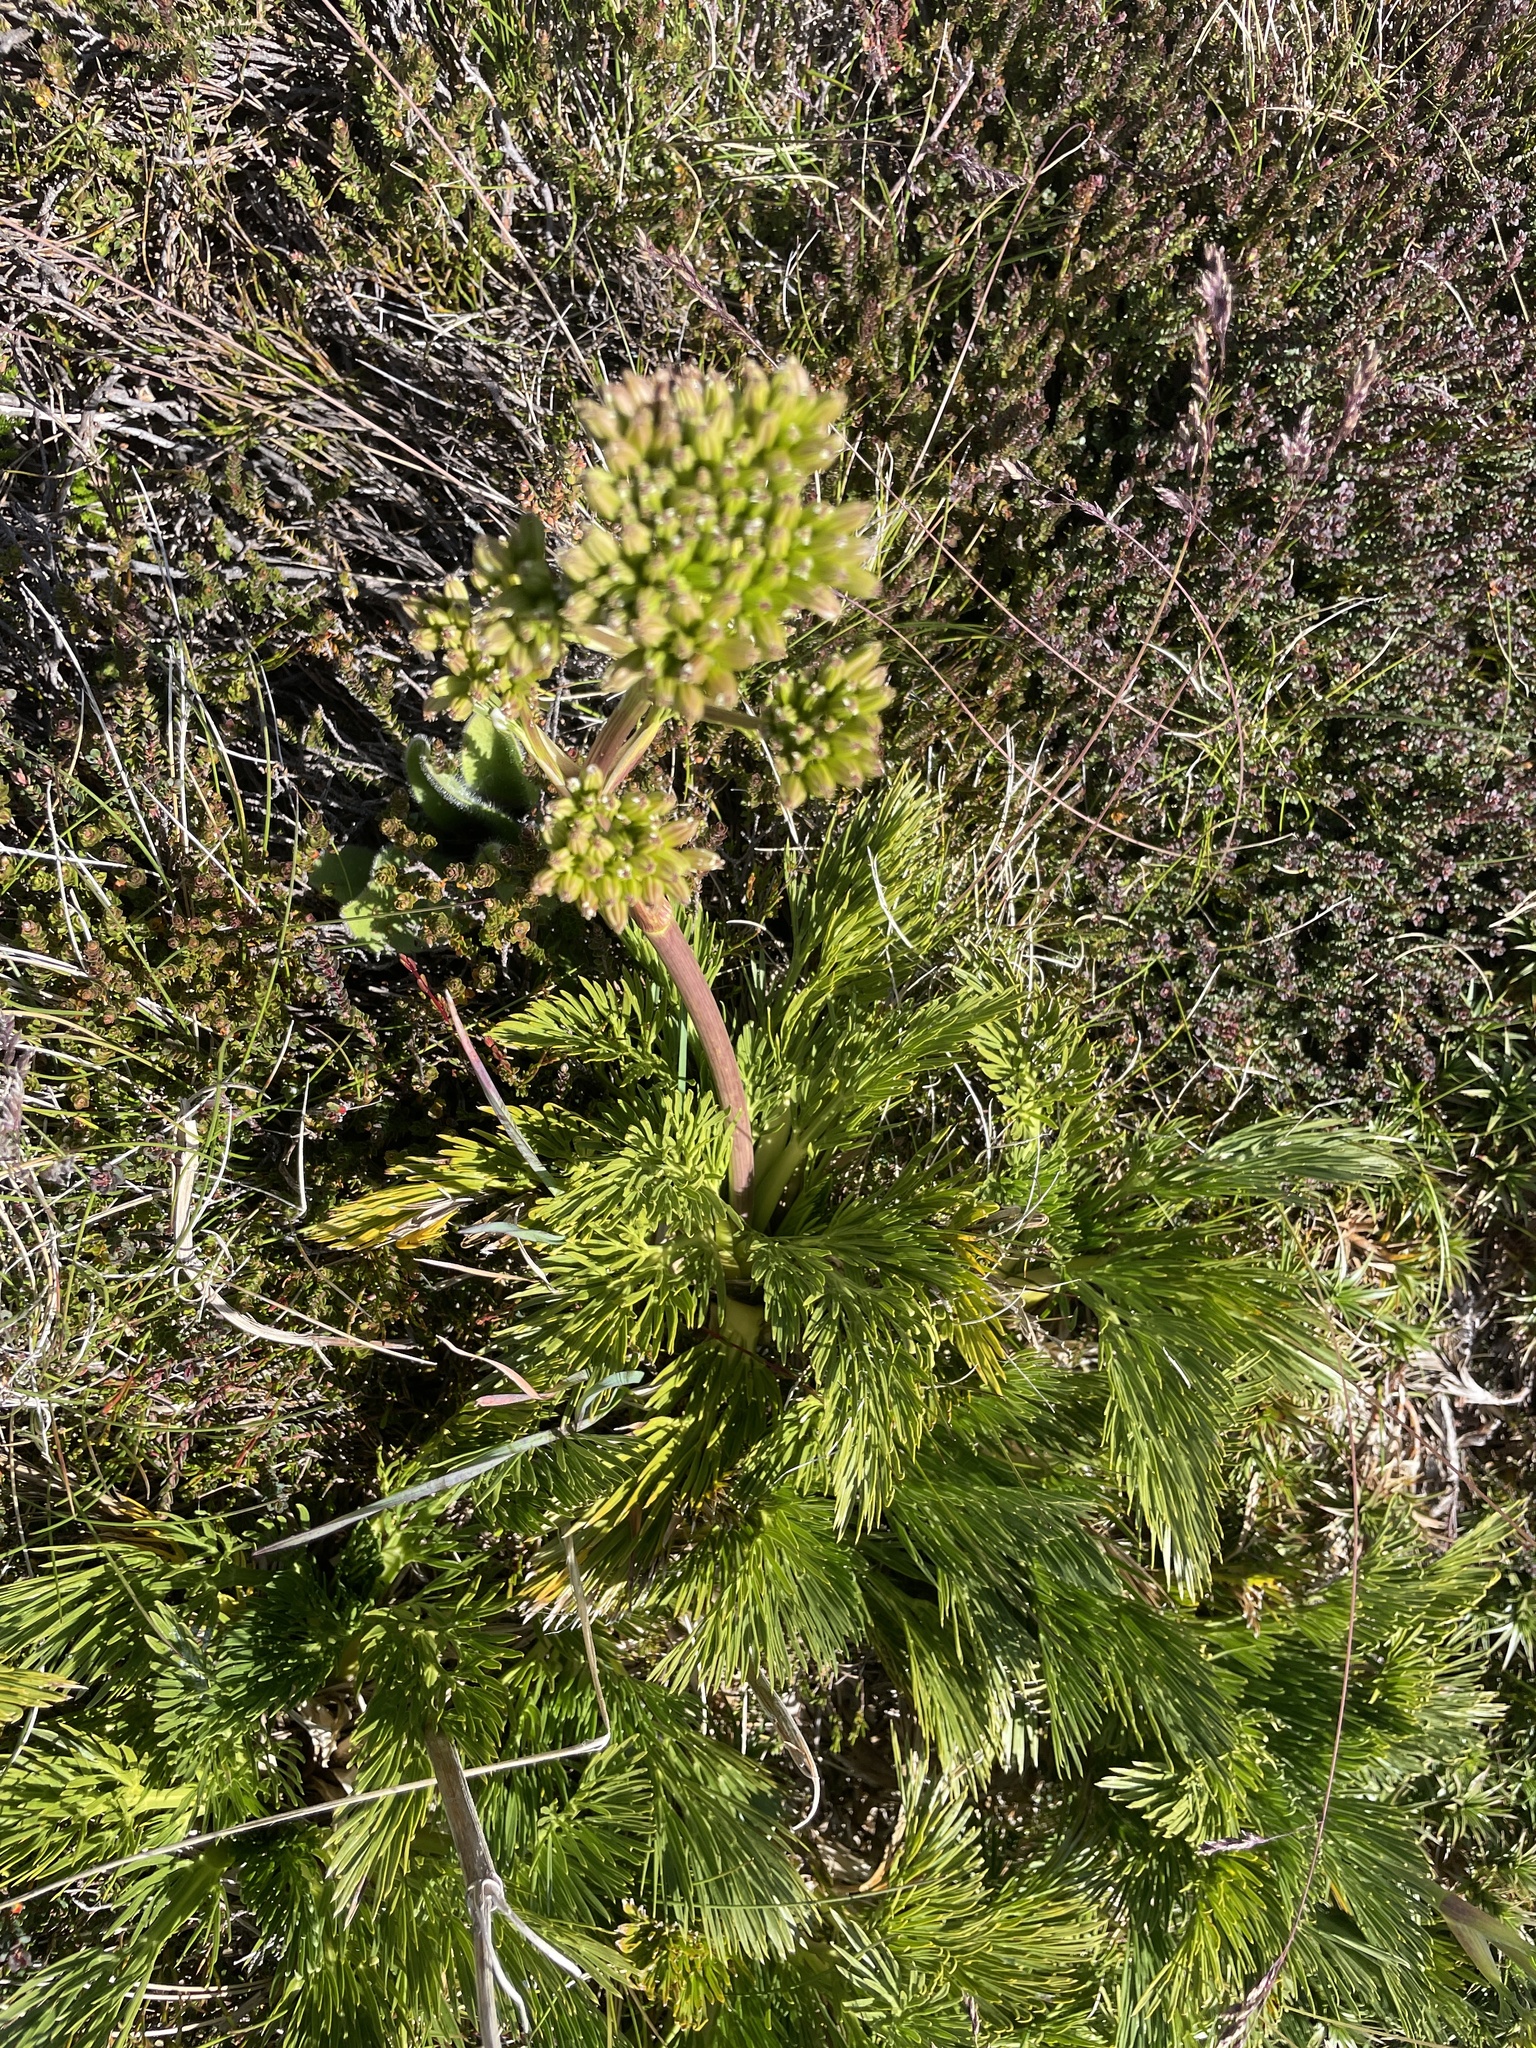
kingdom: Plantae
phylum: Tracheophyta
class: Magnoliopsida
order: Apiales
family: Apiaceae
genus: Aciphylla
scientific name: Aciphylla glacialis
